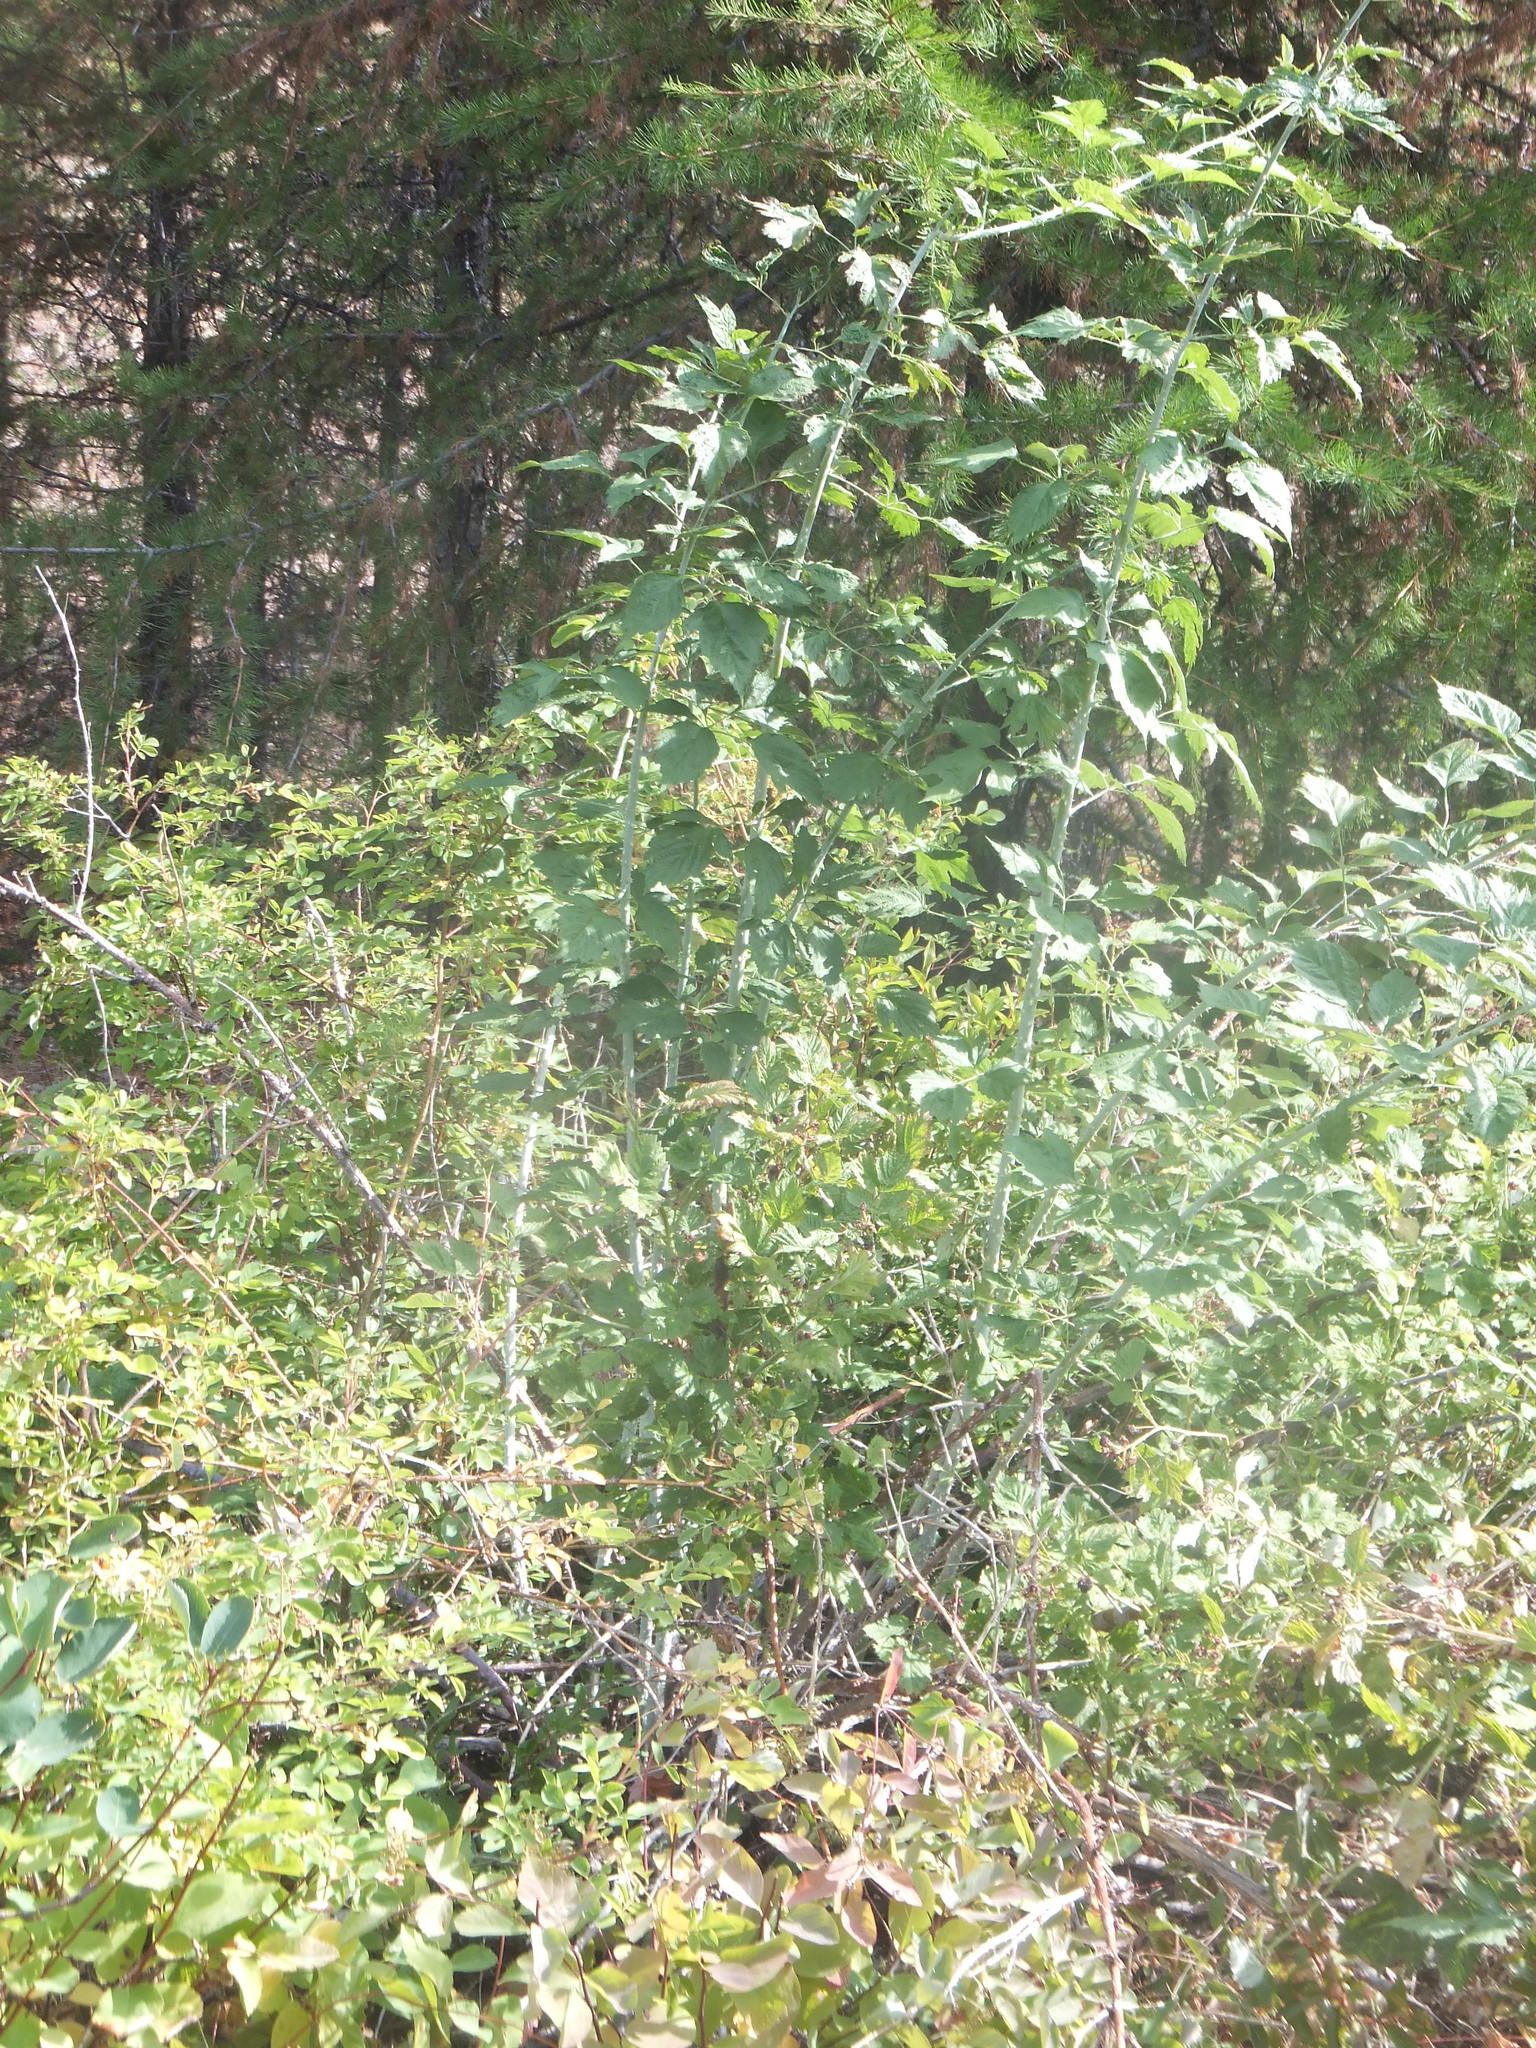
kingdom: Plantae
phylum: Tracheophyta
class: Magnoliopsida
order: Rosales
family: Rosaceae
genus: Rubus
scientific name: Rubus leucodermis
